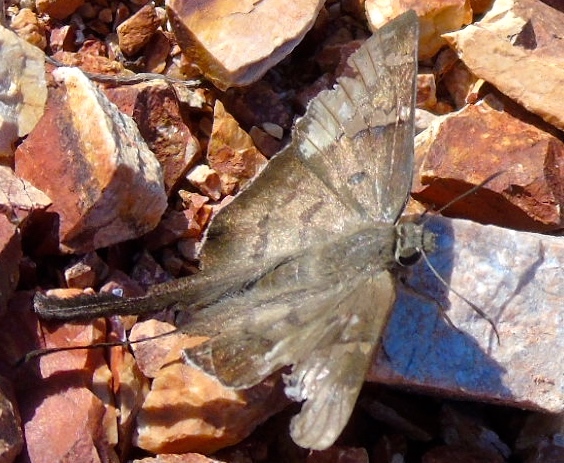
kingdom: Animalia
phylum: Arthropoda
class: Insecta
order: Lepidoptera
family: Hesperiidae
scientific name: Hesperiidae
